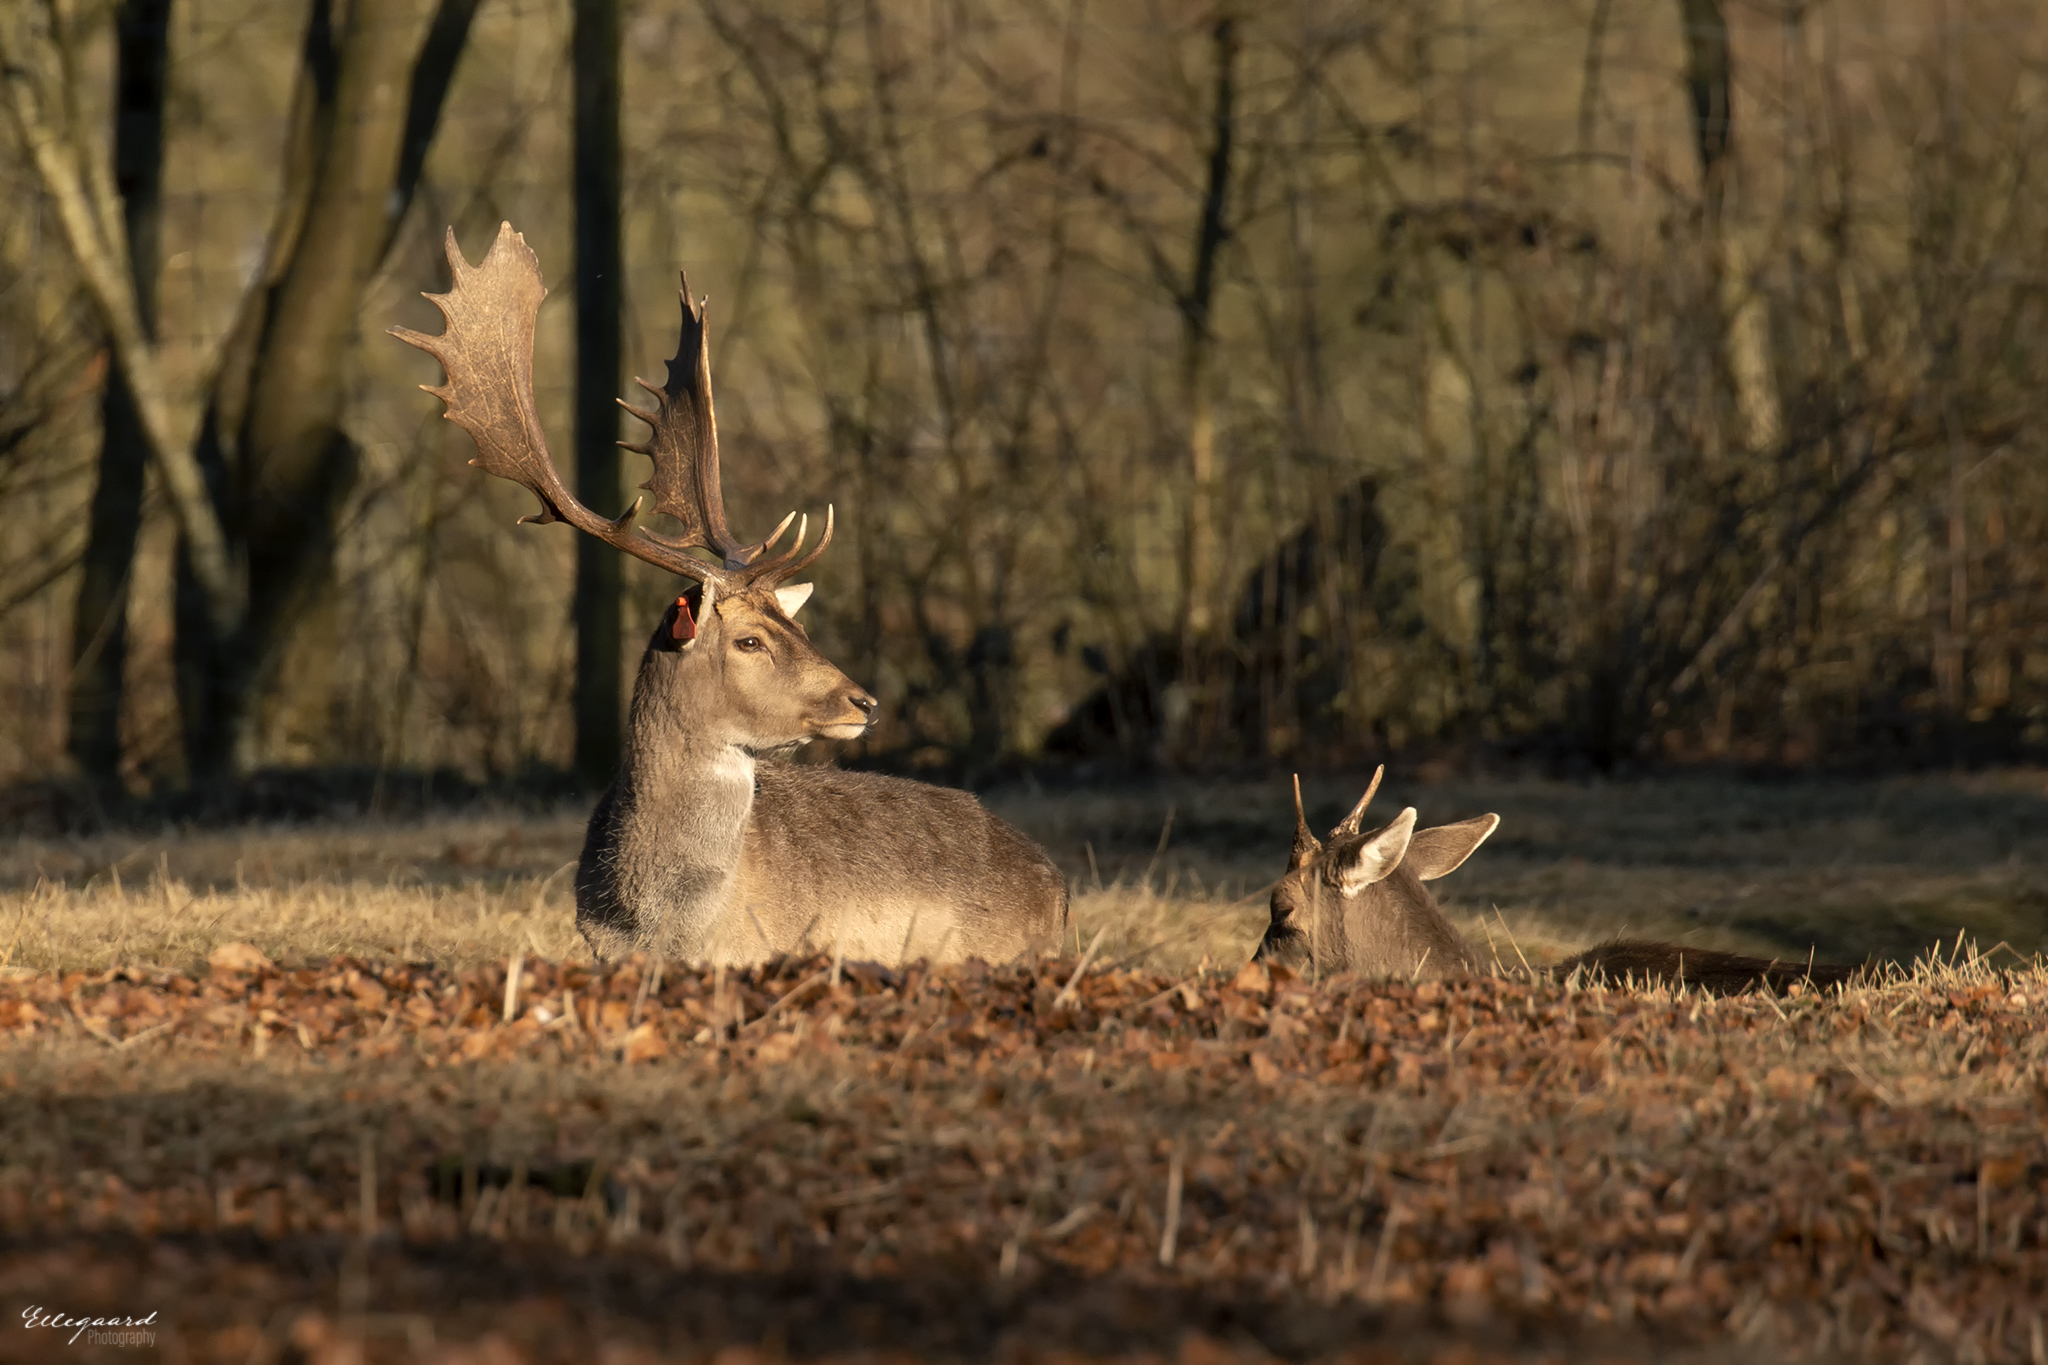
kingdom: Animalia
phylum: Chordata
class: Mammalia
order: Artiodactyla
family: Cervidae
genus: Dama
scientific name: Dama dama
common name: Fallow deer
